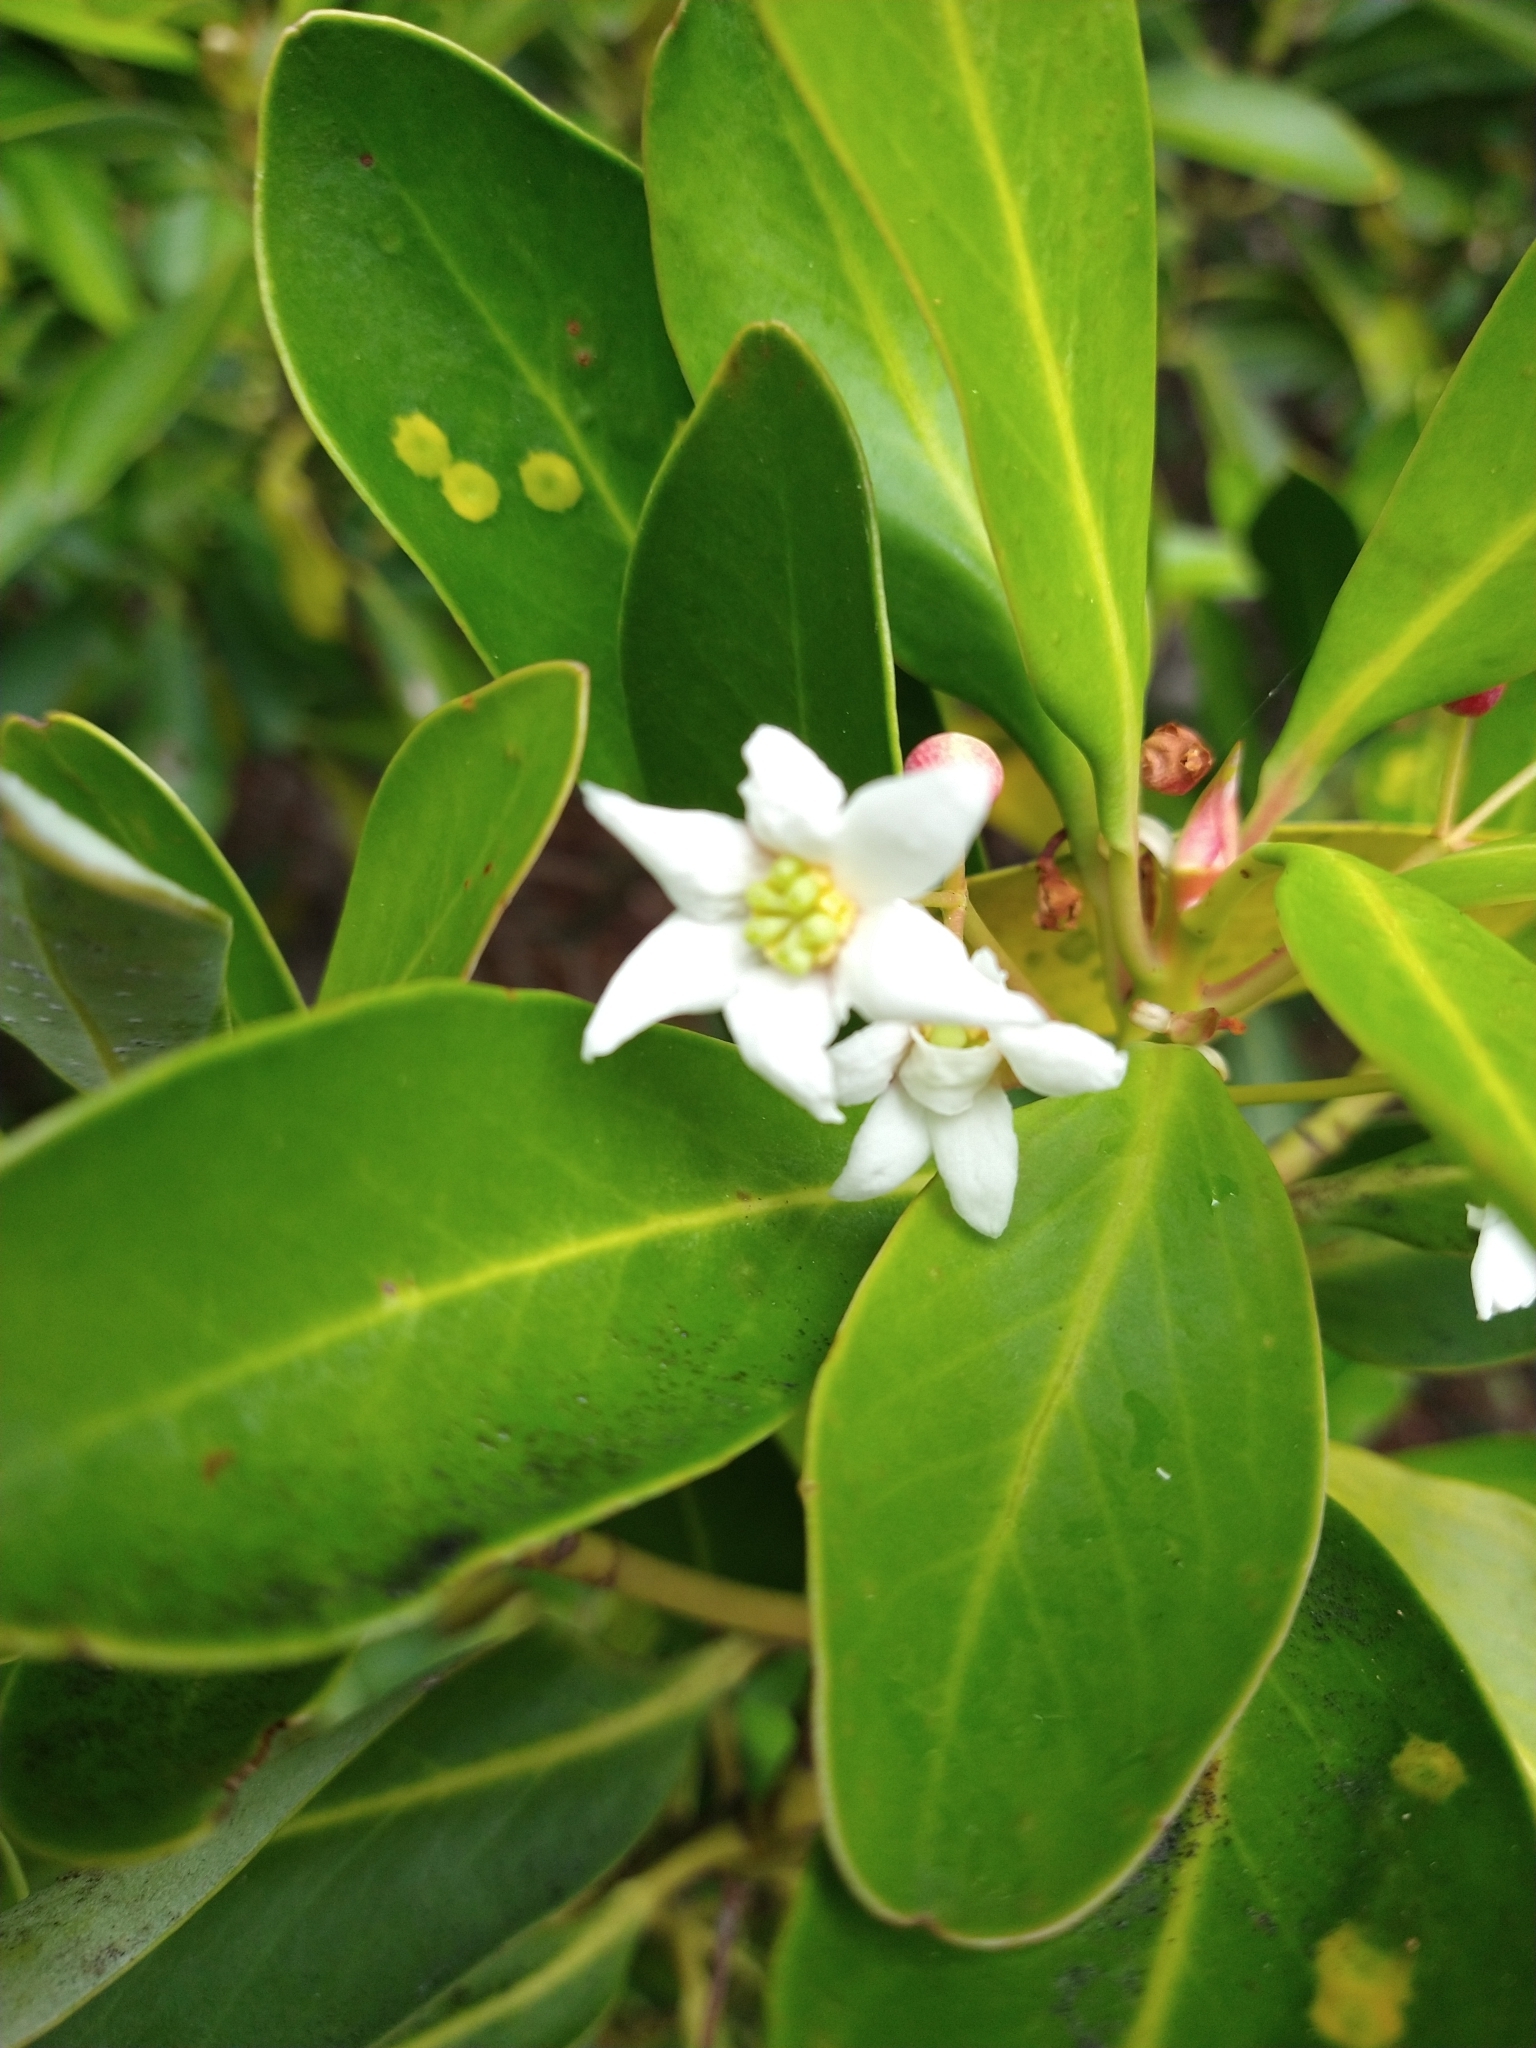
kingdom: Plantae
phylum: Tracheophyta
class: Magnoliopsida
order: Canellales
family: Winteraceae
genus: Drimys
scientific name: Drimys winteri
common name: Winter's-bark
